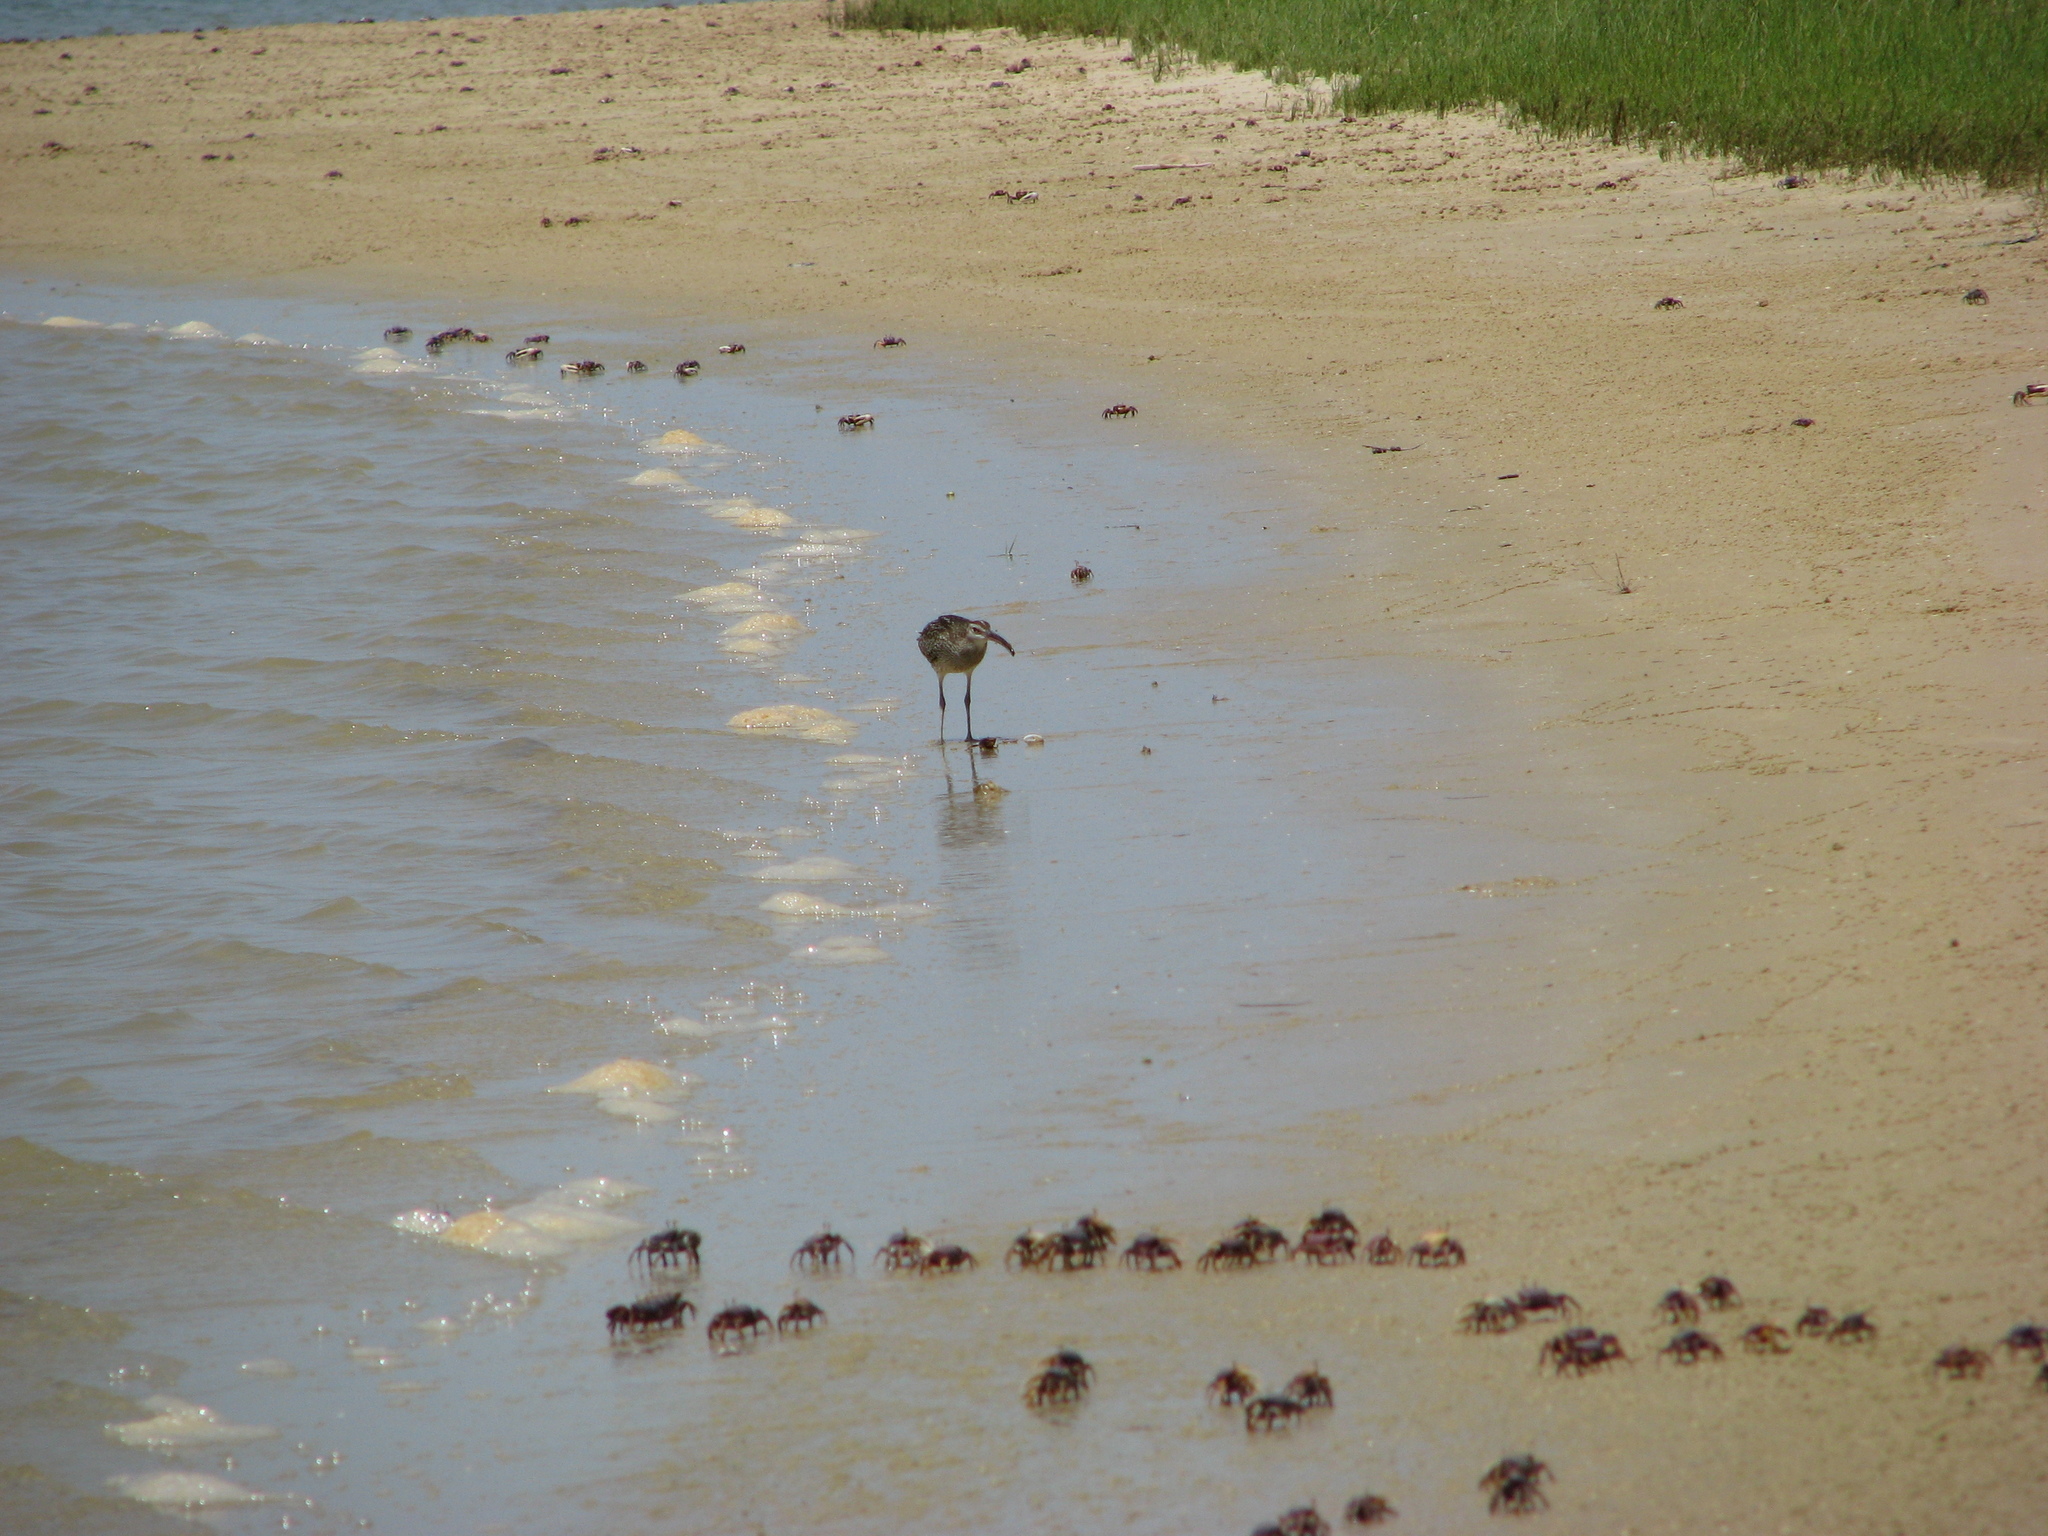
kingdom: Animalia
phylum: Chordata
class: Aves
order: Charadriiformes
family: Scolopacidae
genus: Numenius
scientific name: Numenius phaeopus
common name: Whimbrel
